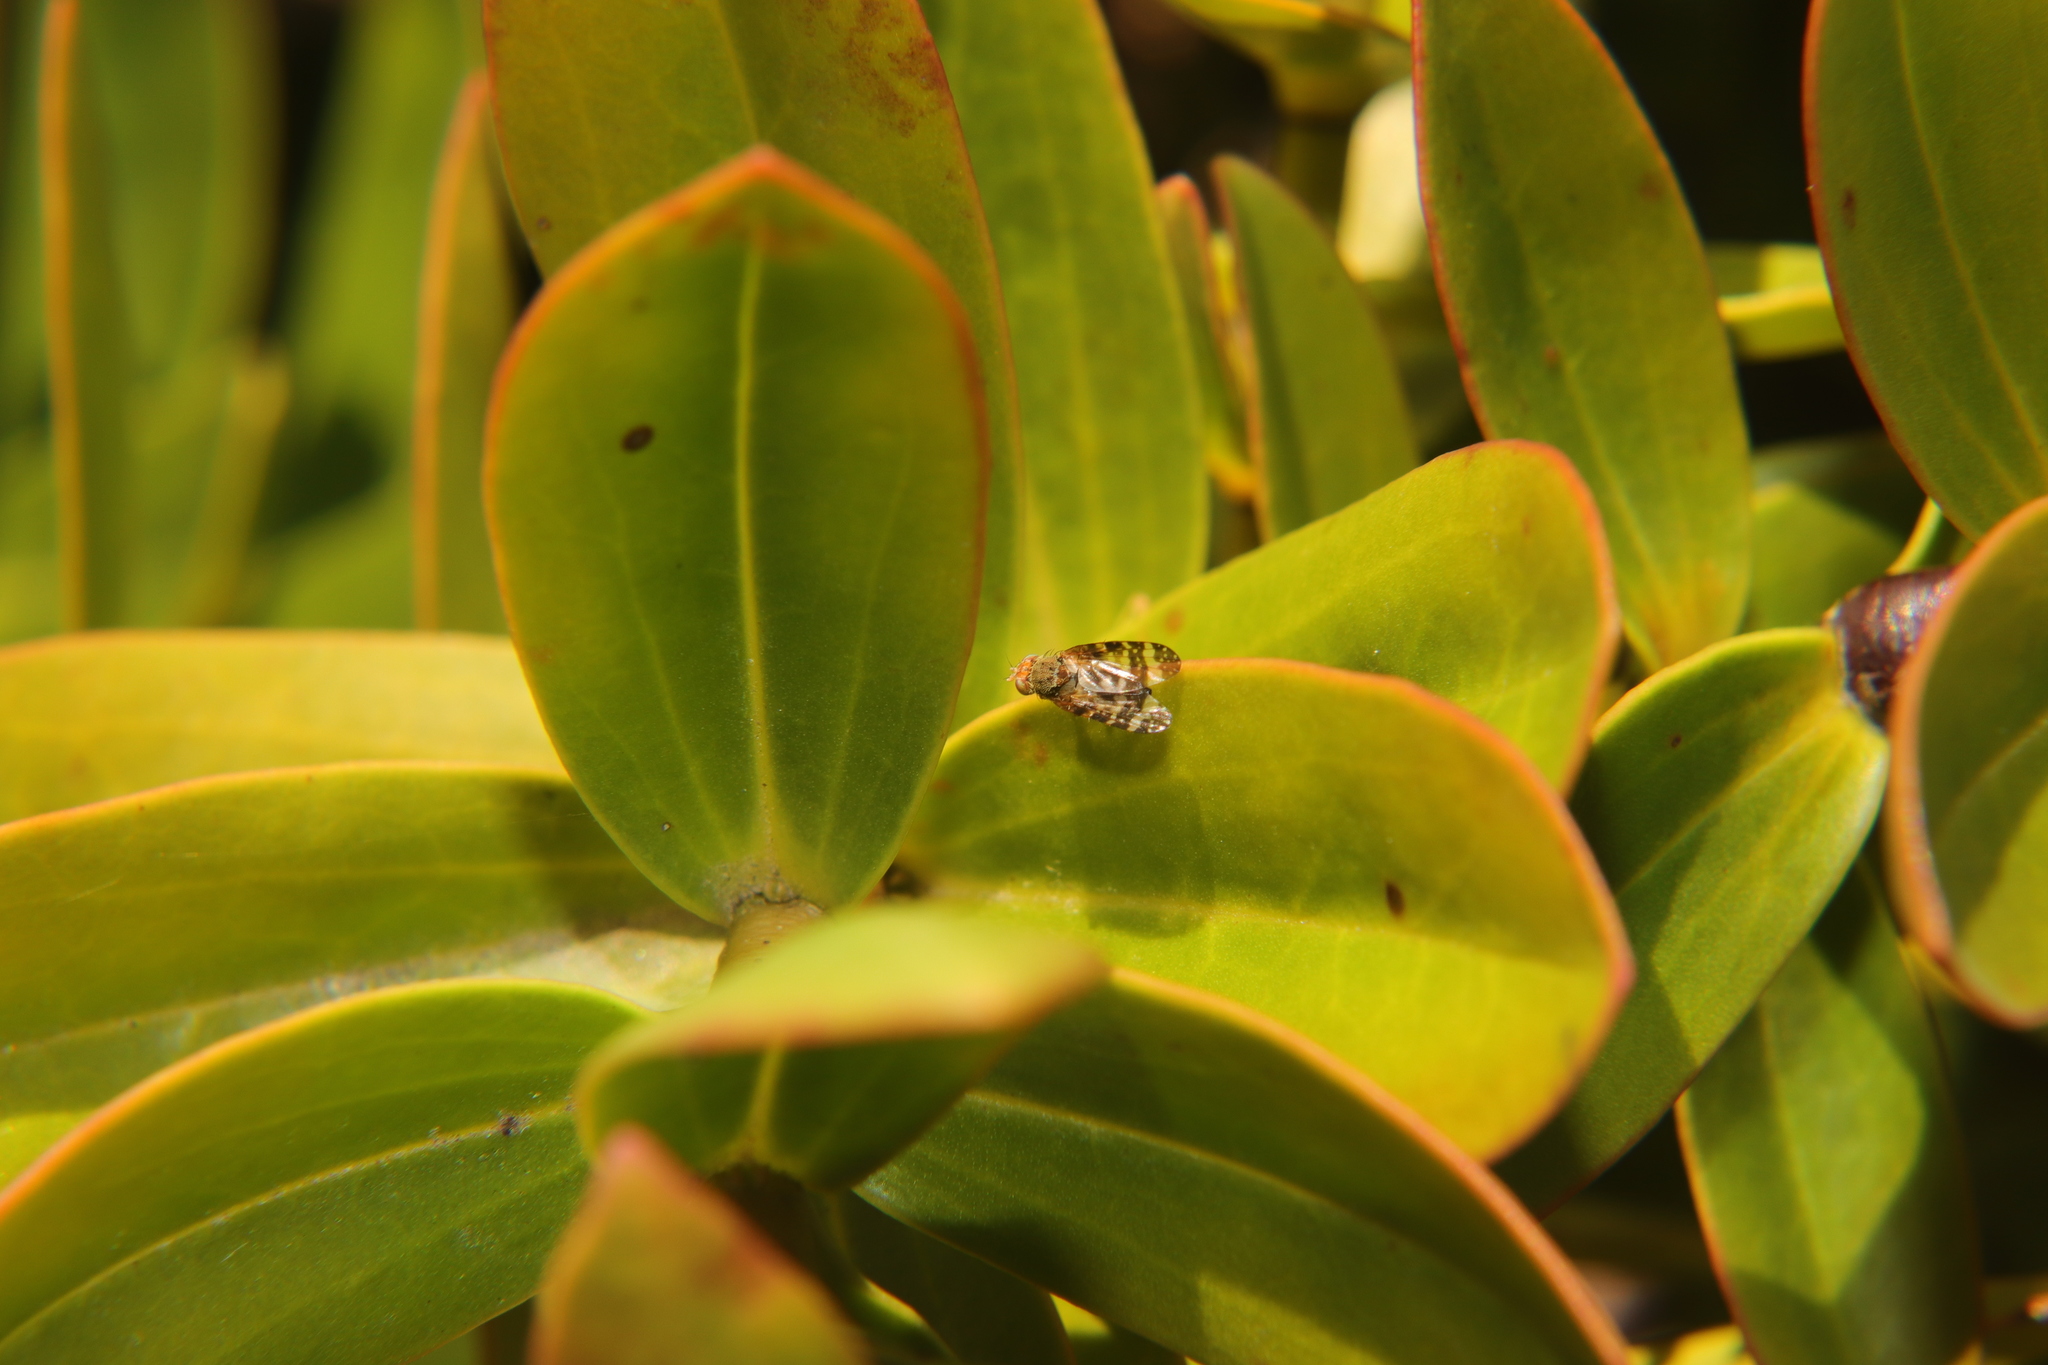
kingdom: Animalia
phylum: Arthropoda
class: Insecta
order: Diptera
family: Tephritidae
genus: Sphenella
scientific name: Sphenella
